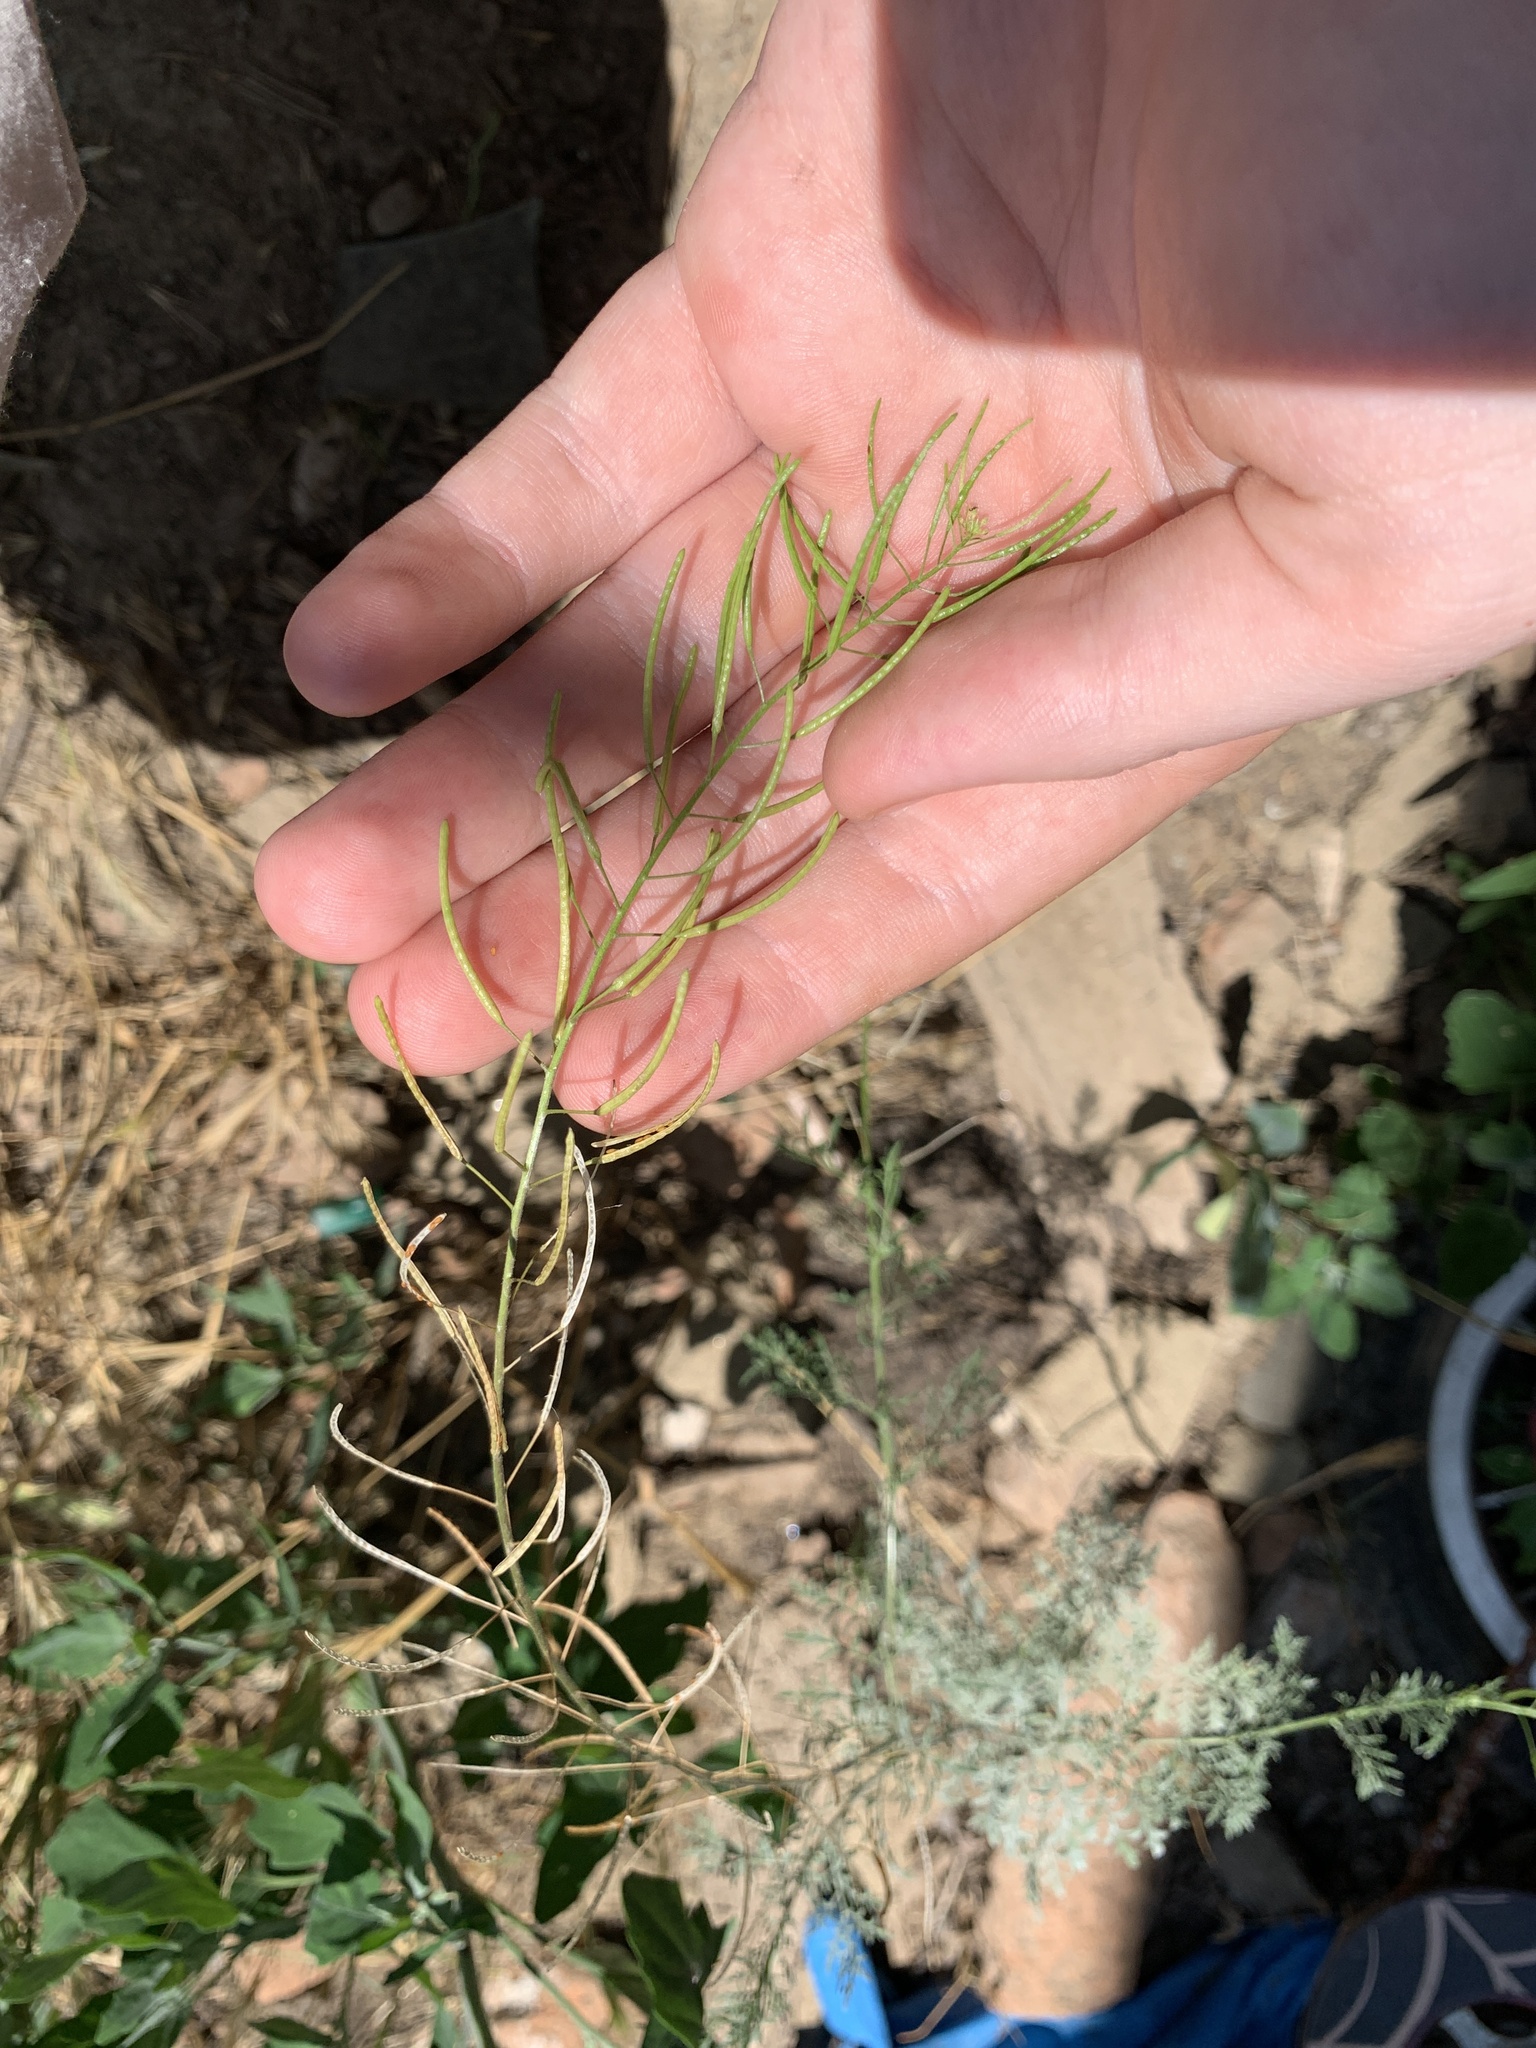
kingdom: Plantae
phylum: Tracheophyta
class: Magnoliopsida
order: Brassicales
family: Brassicaceae
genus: Descurainia
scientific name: Descurainia sophia
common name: Flixweed
